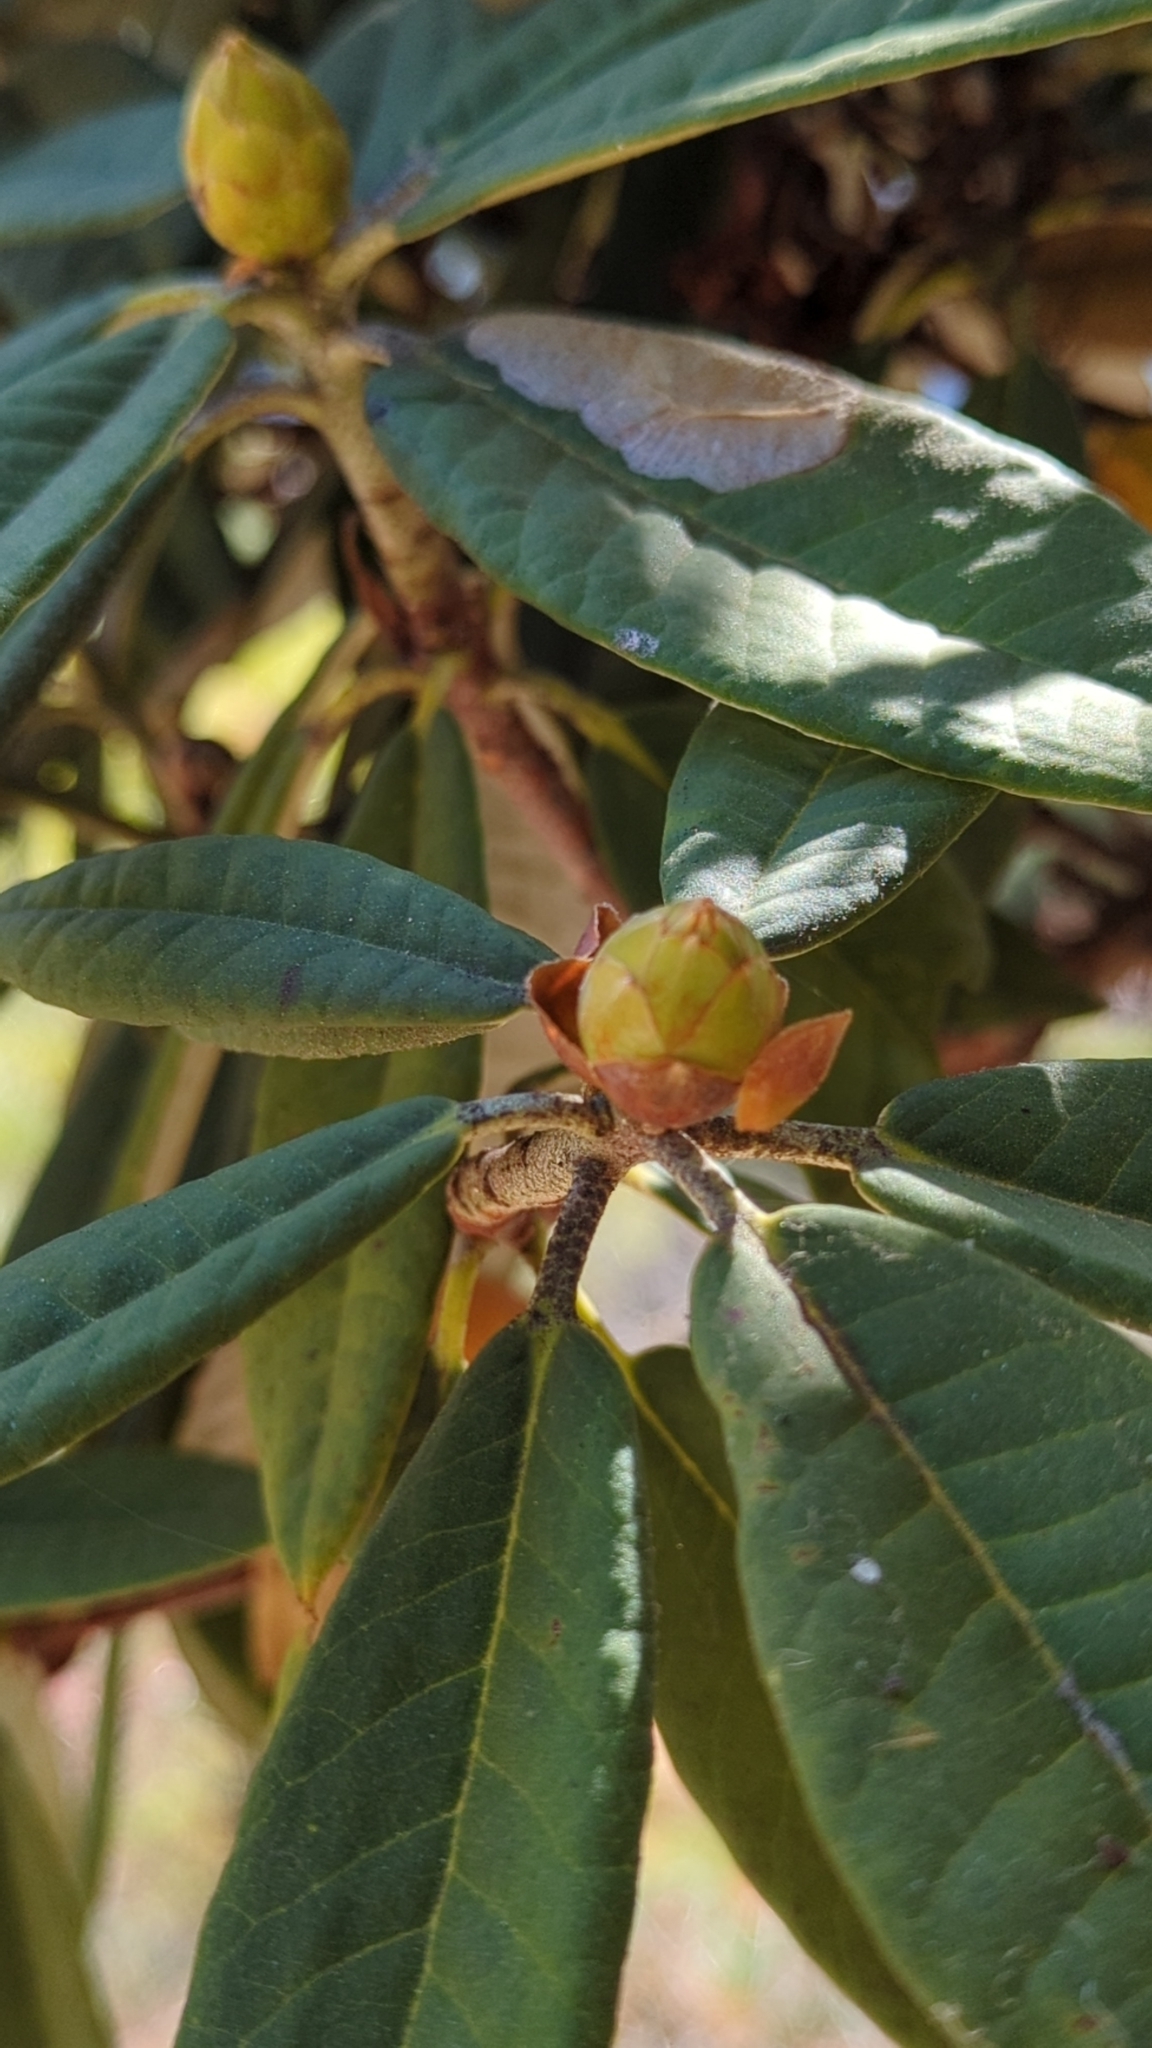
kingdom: Plantae
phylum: Tracheophyta
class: Magnoliopsida
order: Ericales
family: Ericaceae
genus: Rhododendron
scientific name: Rhododendron arboreum
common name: Tree rhododendron
